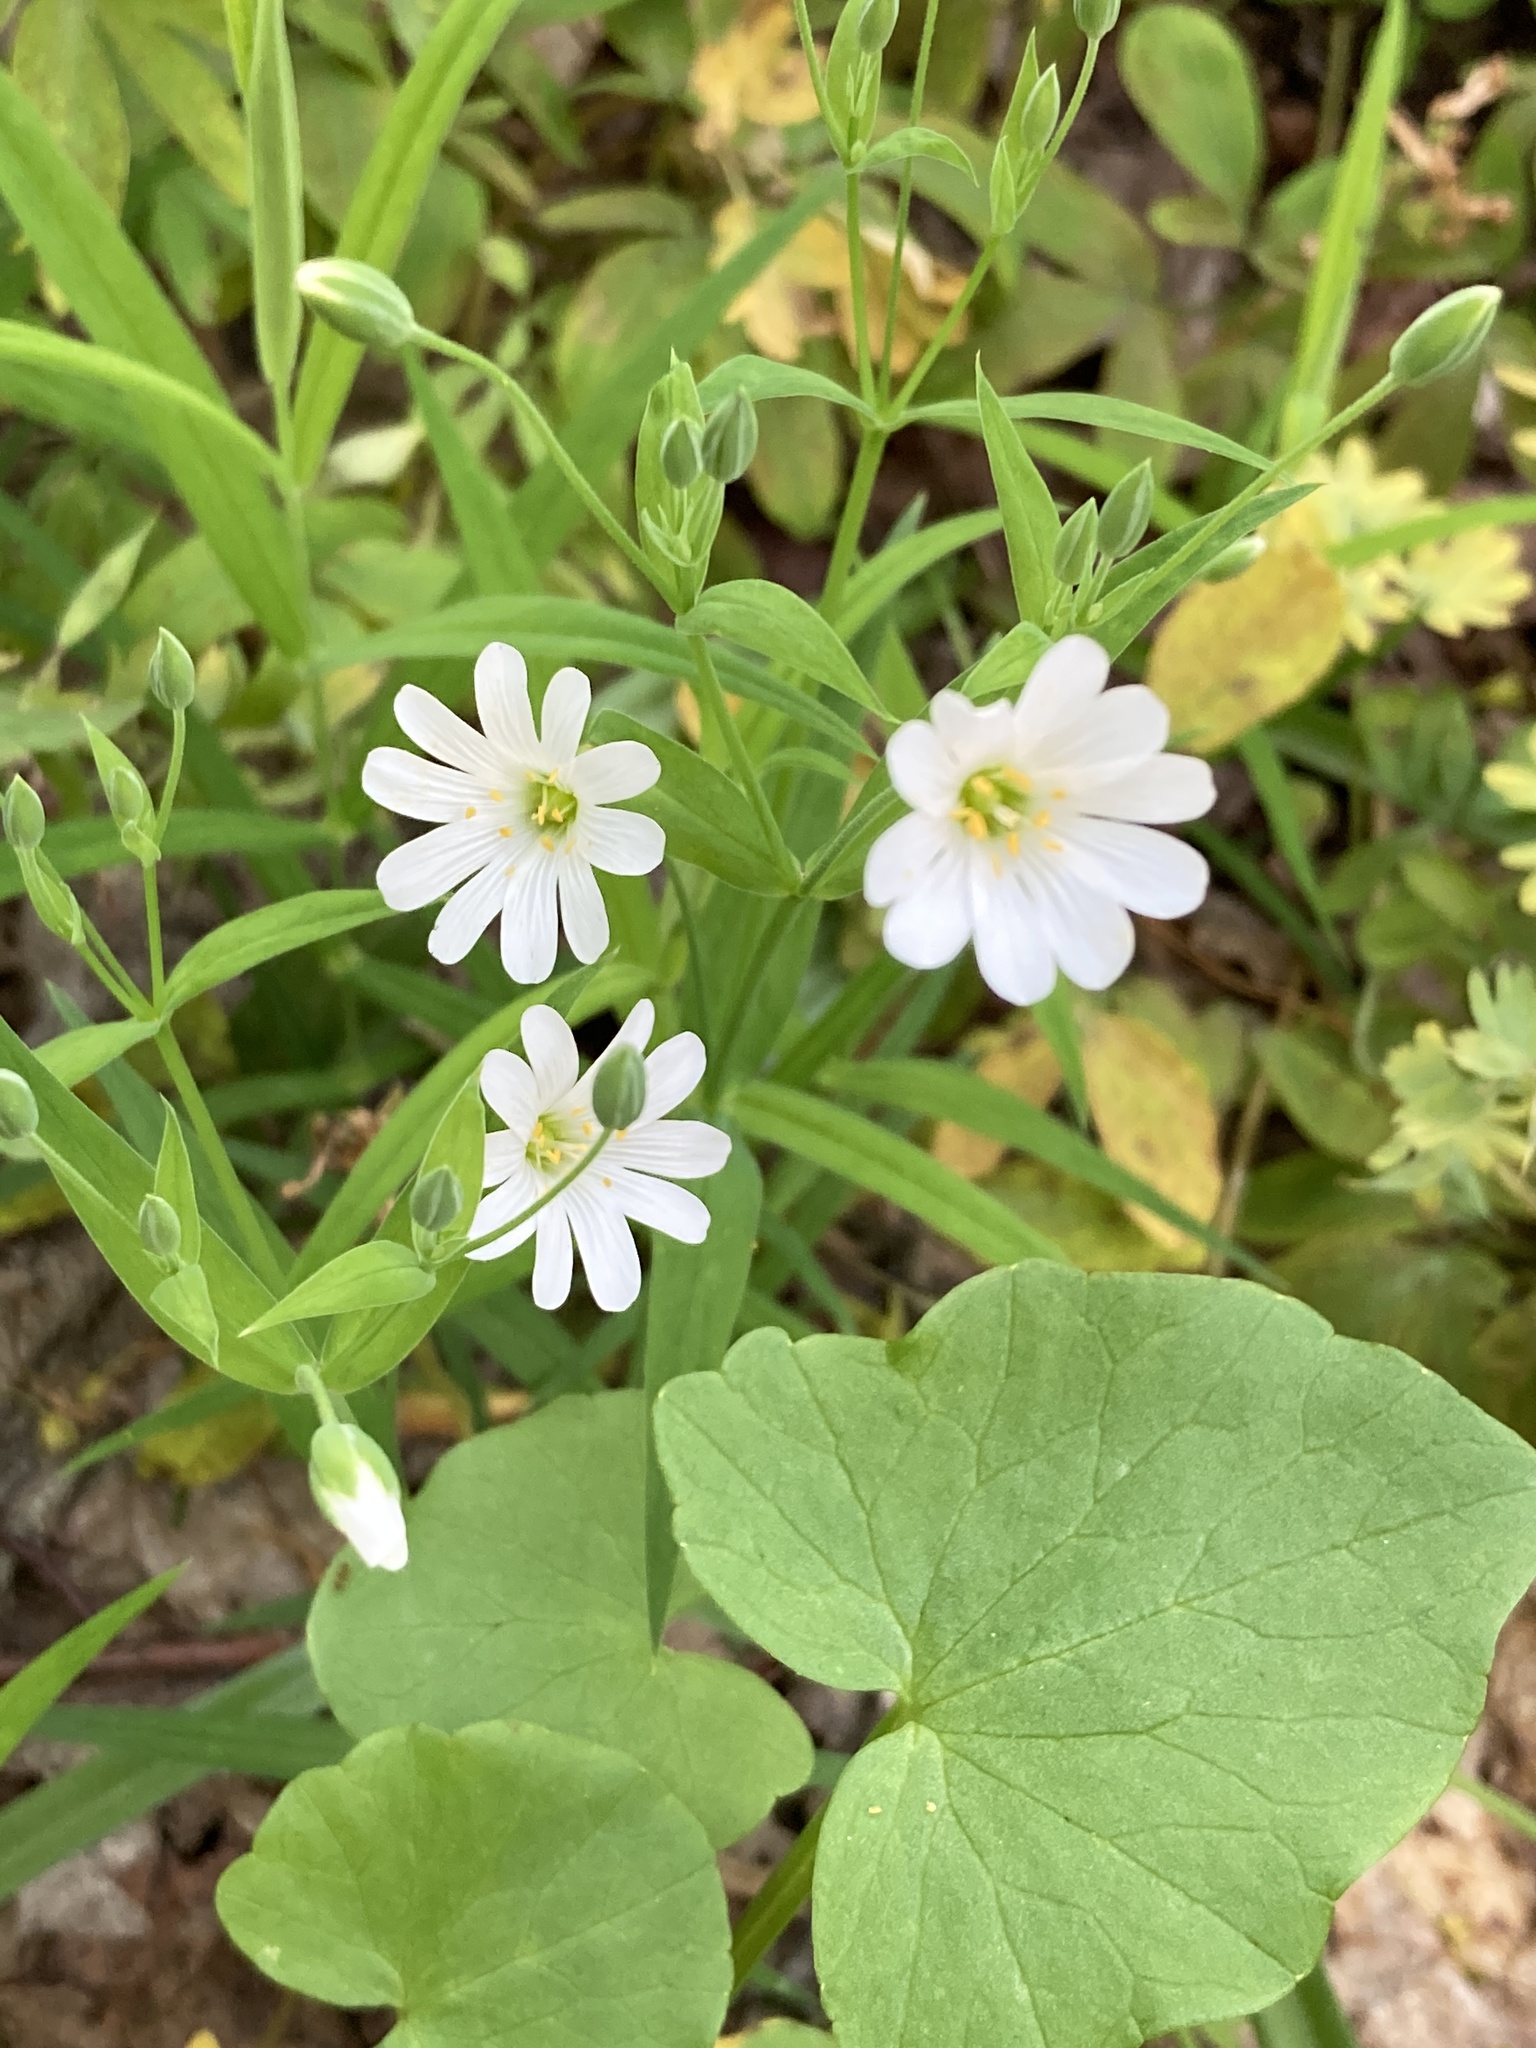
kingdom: Plantae
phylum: Tracheophyta
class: Magnoliopsida
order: Caryophyllales
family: Caryophyllaceae
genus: Rabelera
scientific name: Rabelera holostea
